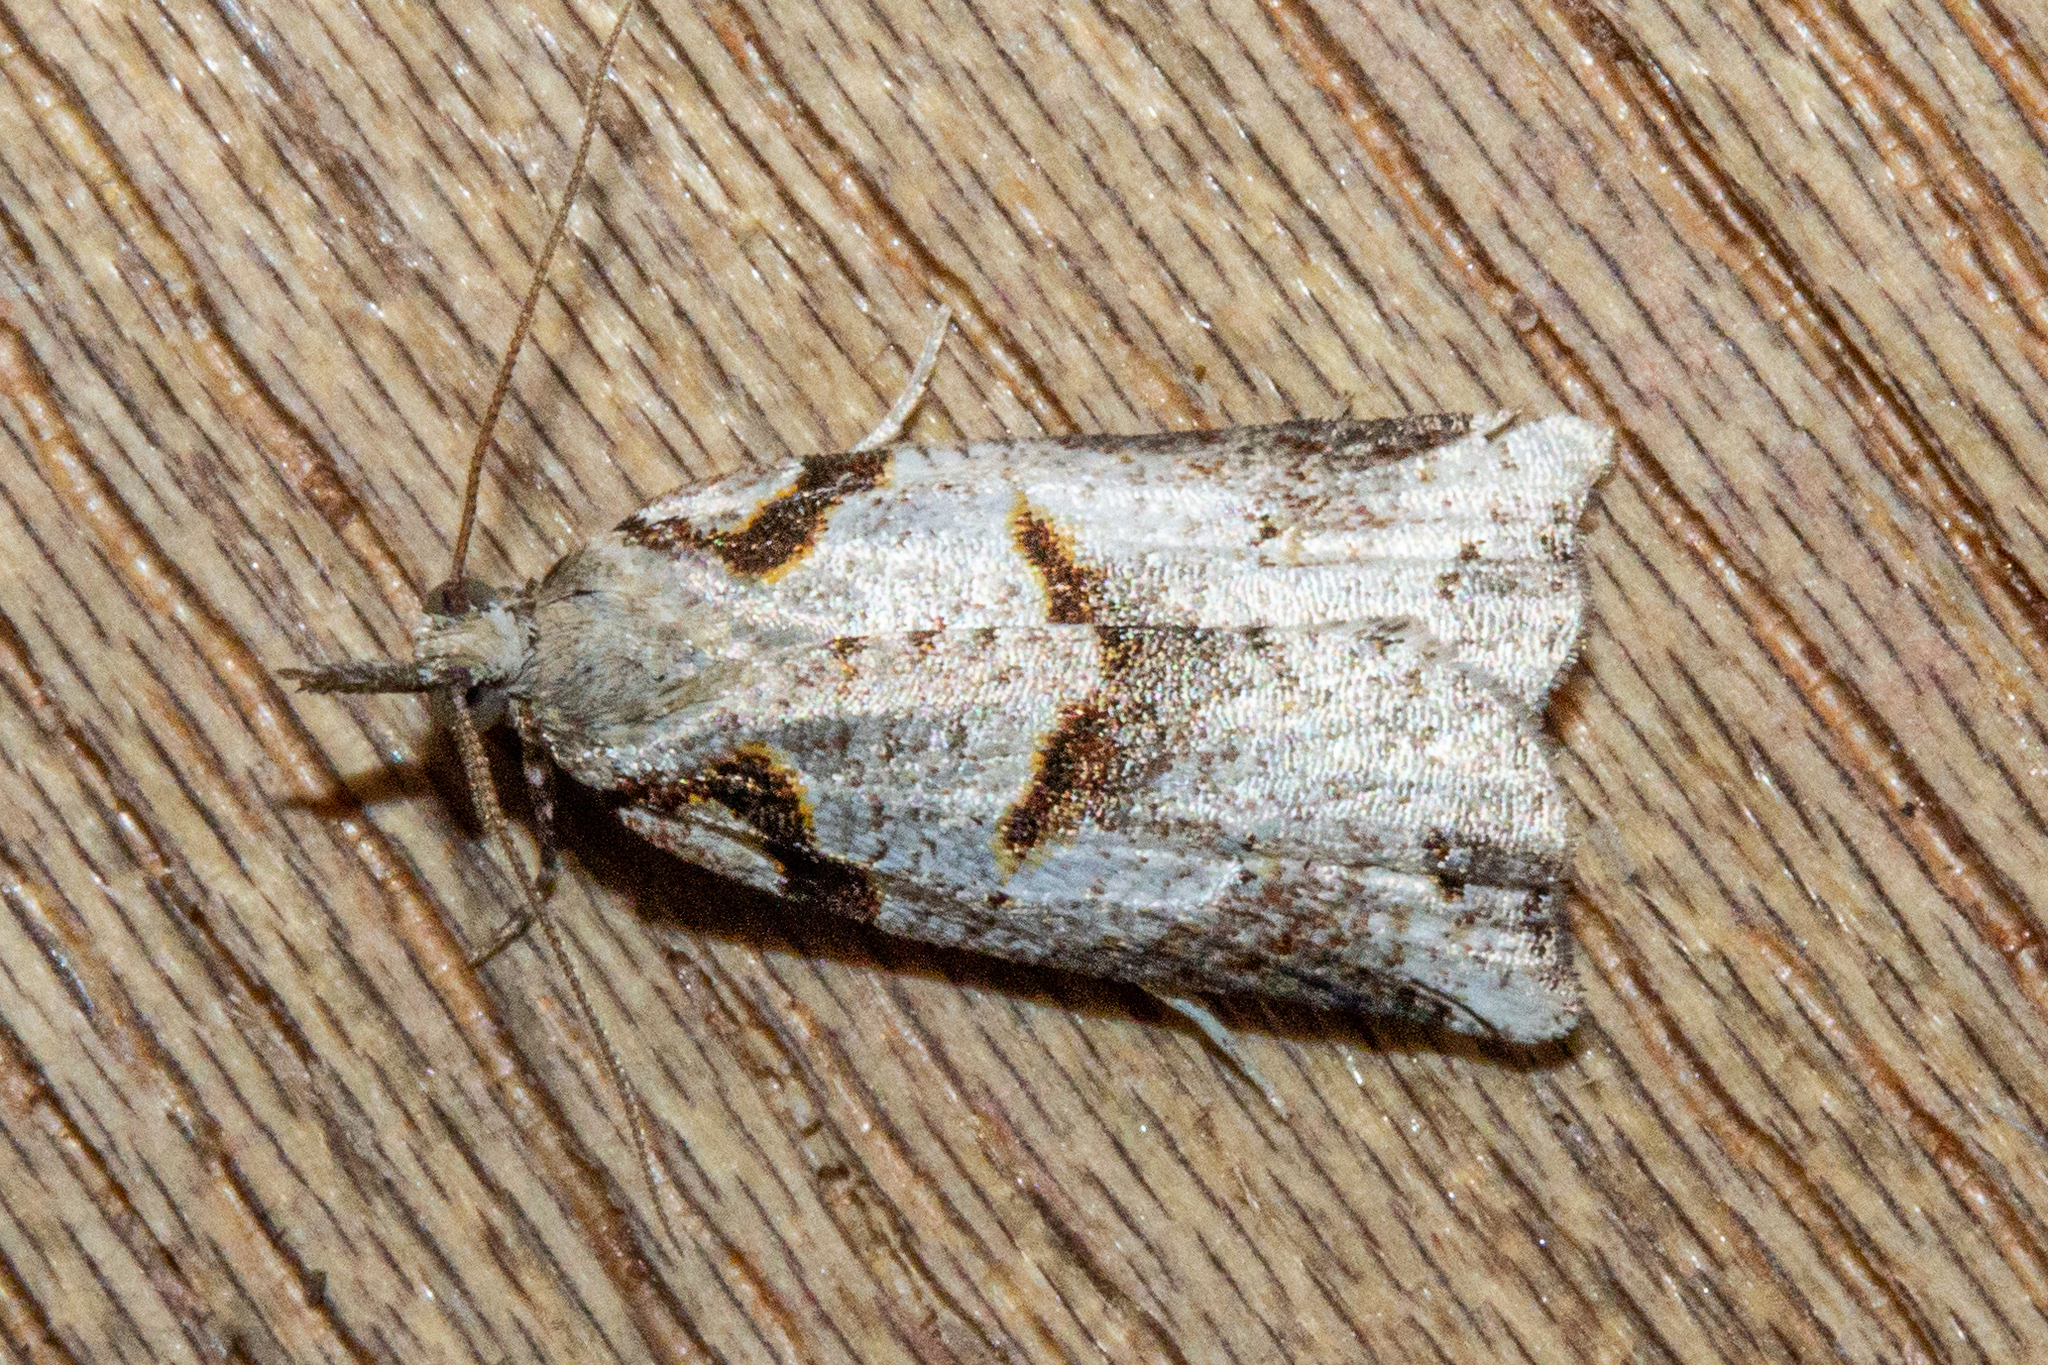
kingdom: Animalia
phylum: Arthropoda
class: Insecta
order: Lepidoptera
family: Tortricidae
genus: Harmologa
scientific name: Harmologa amplexana
